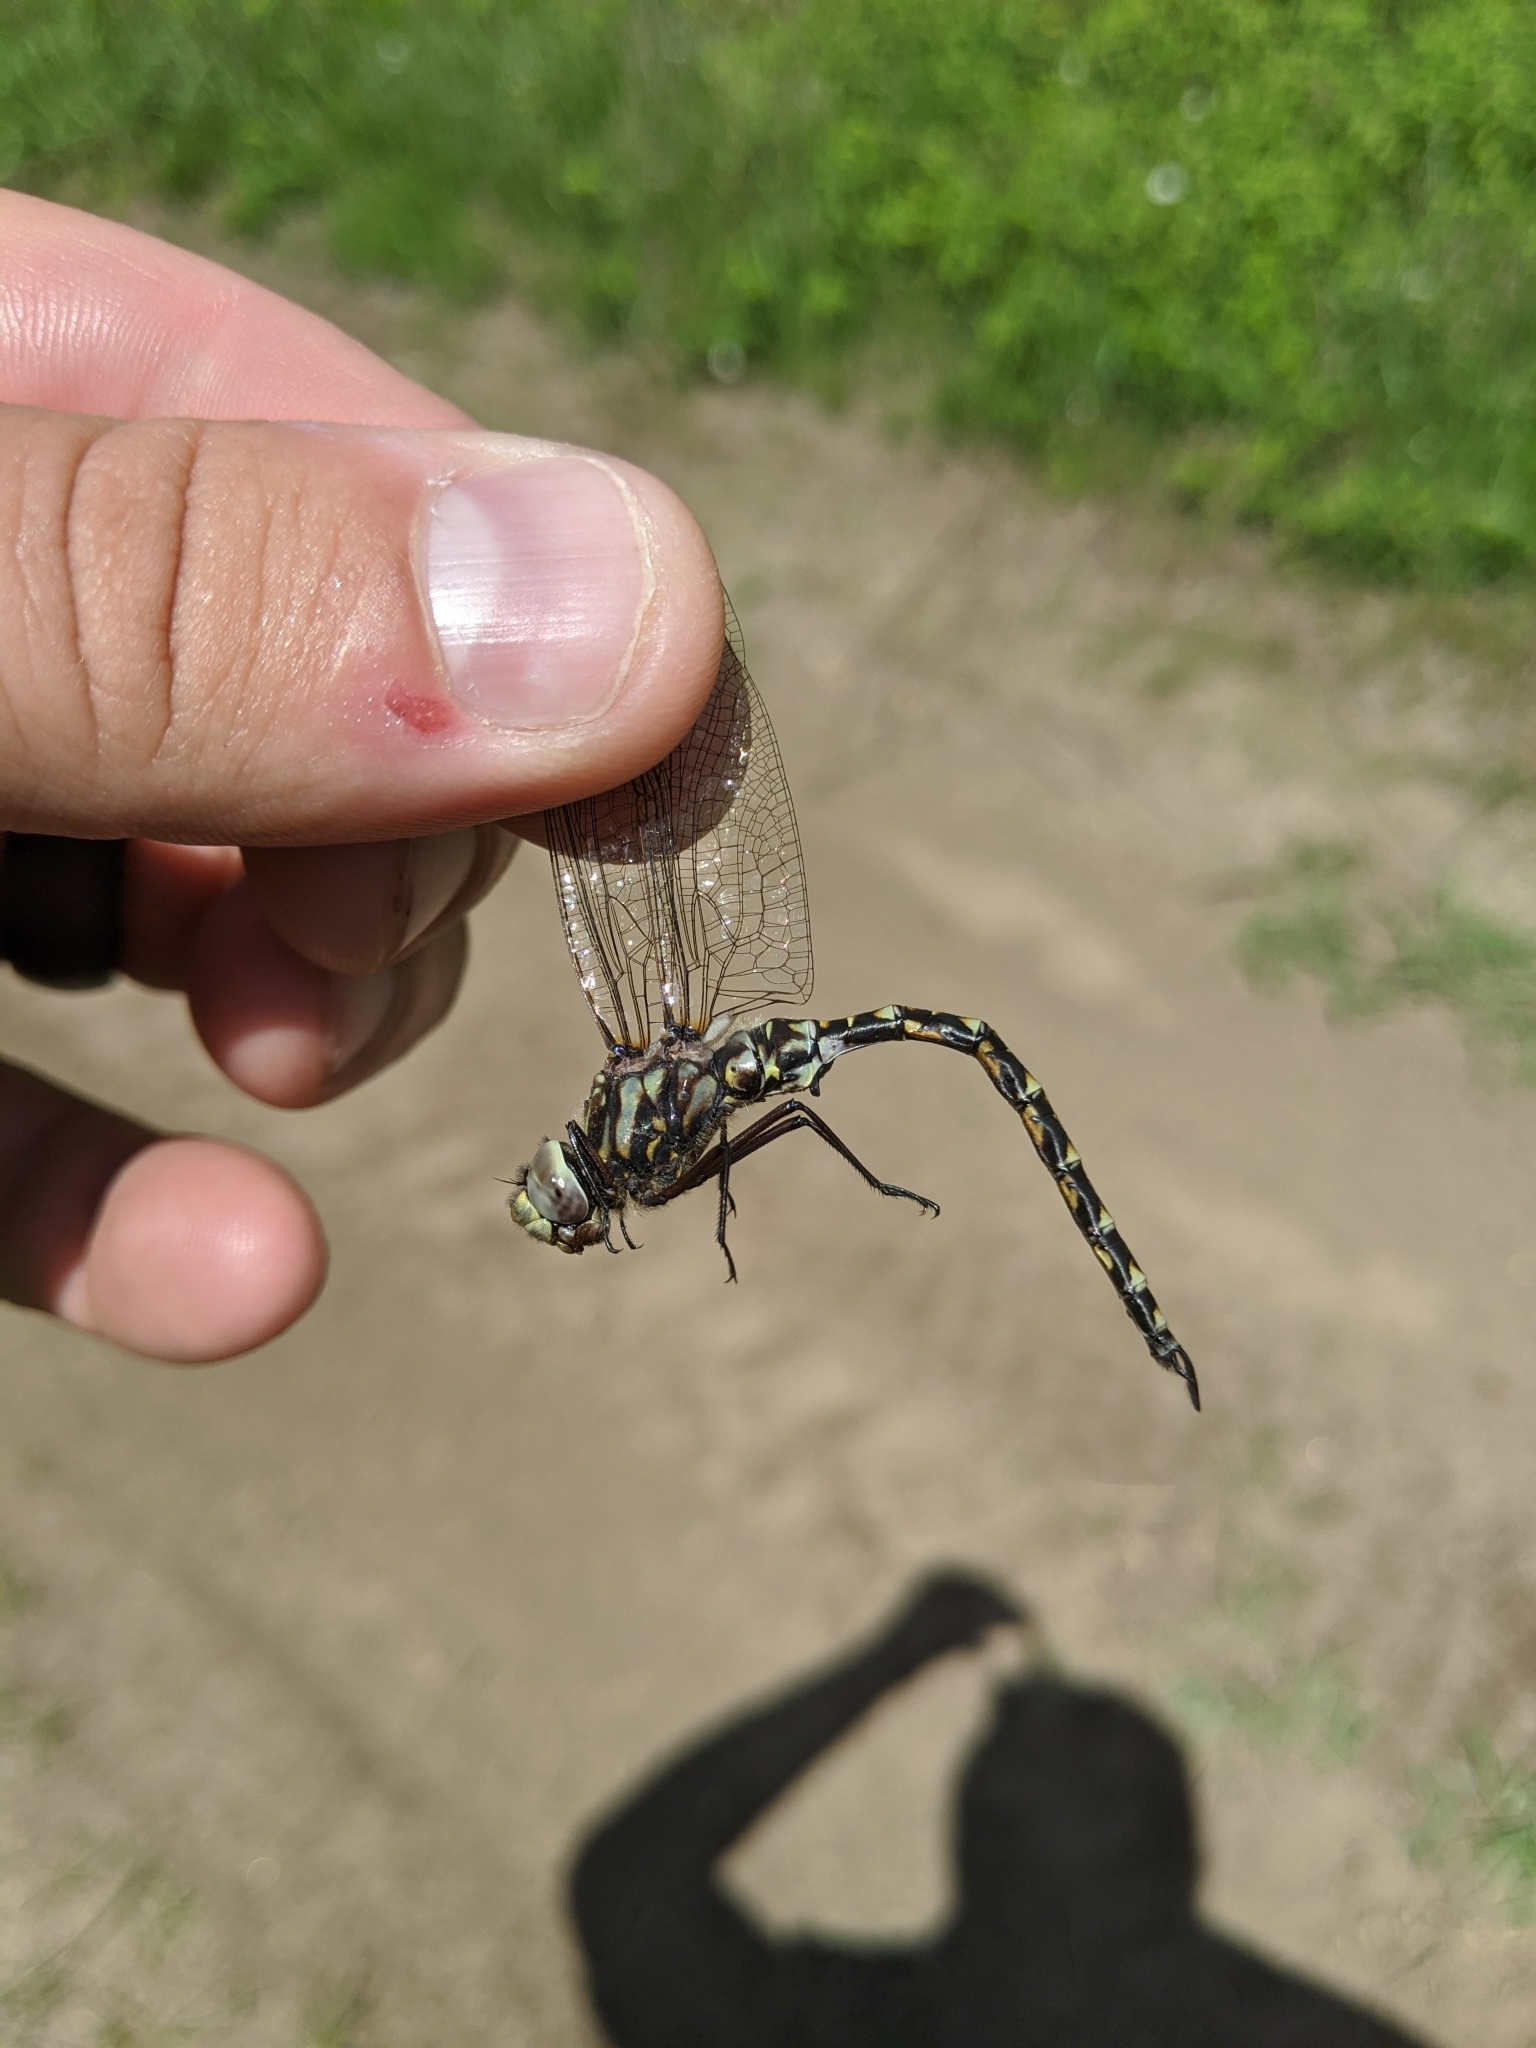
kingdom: Animalia
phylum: Arthropoda
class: Insecta
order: Odonata
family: Aeshnidae
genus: Gomphaeschna
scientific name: Gomphaeschna furcillata
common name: Harlequin darner
